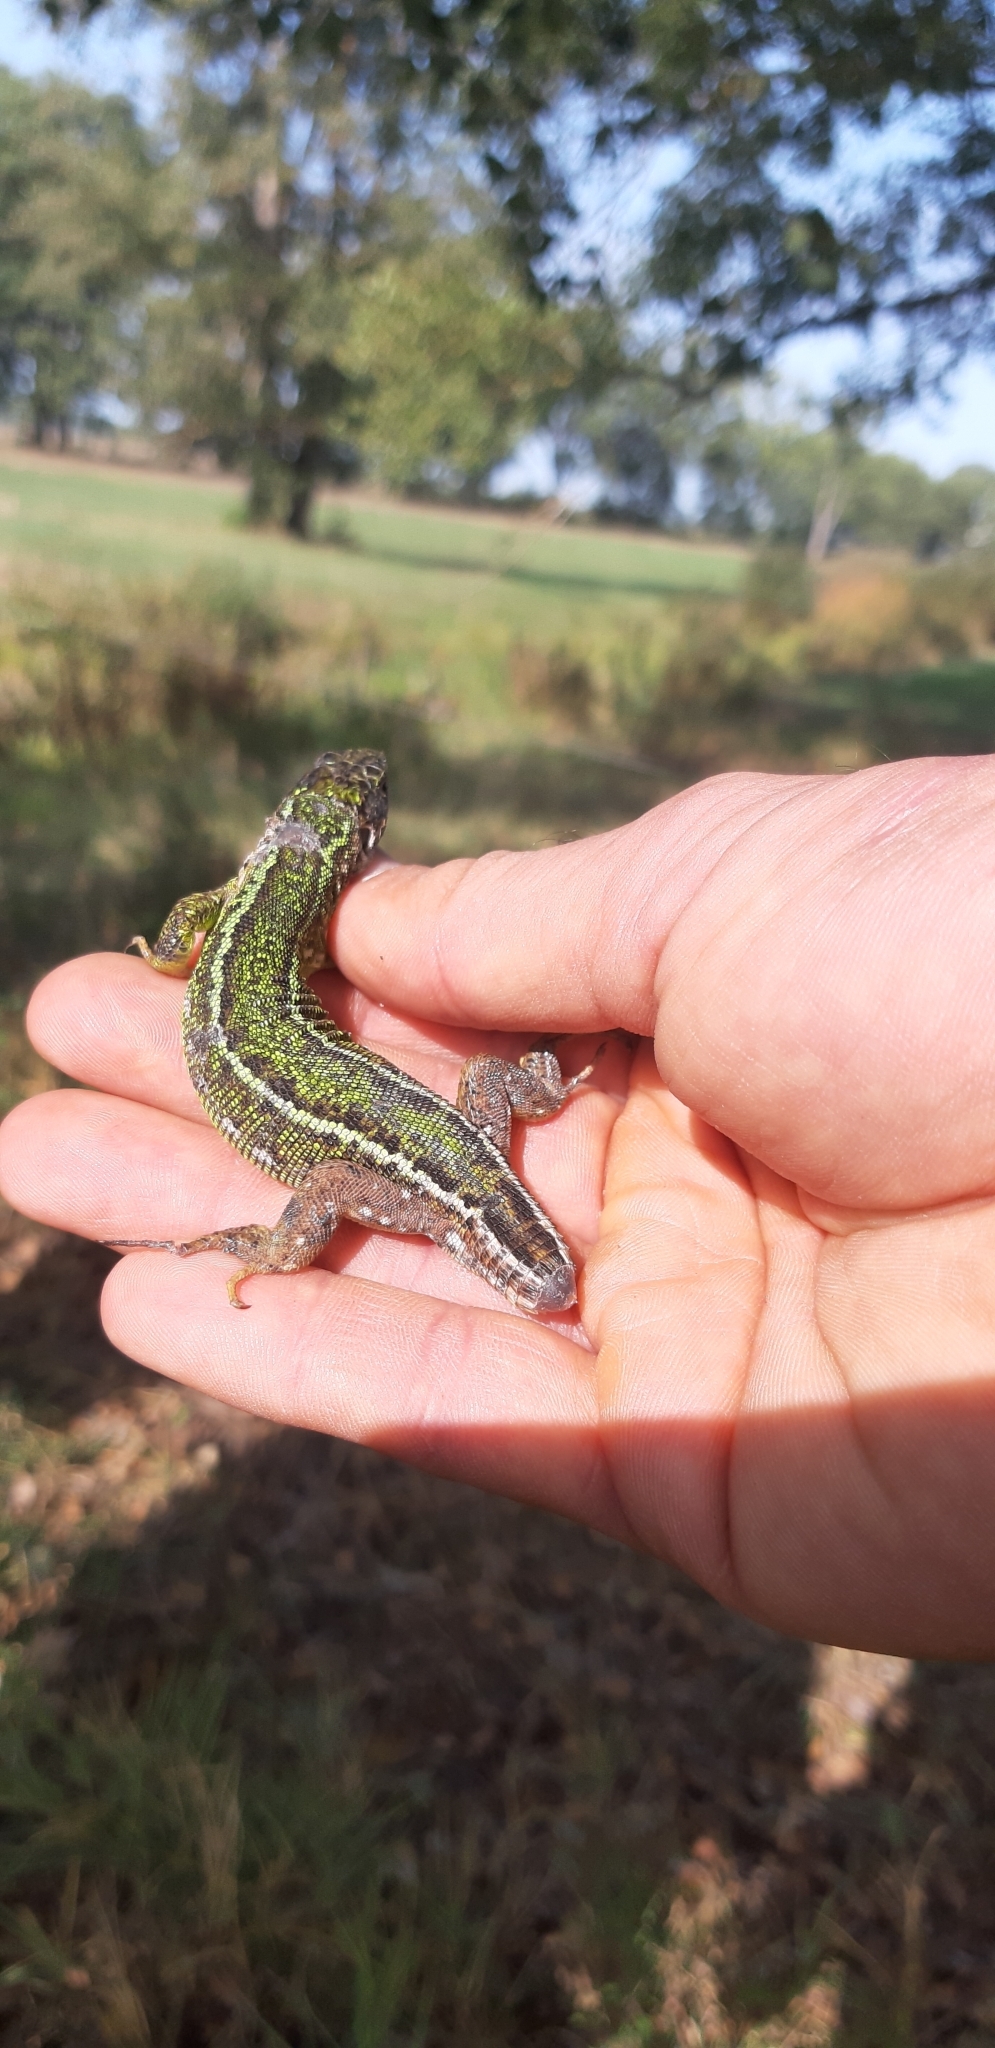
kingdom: Animalia
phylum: Chordata
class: Squamata
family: Lacertidae
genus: Lacerta
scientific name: Lacerta viridis
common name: European green lizard
